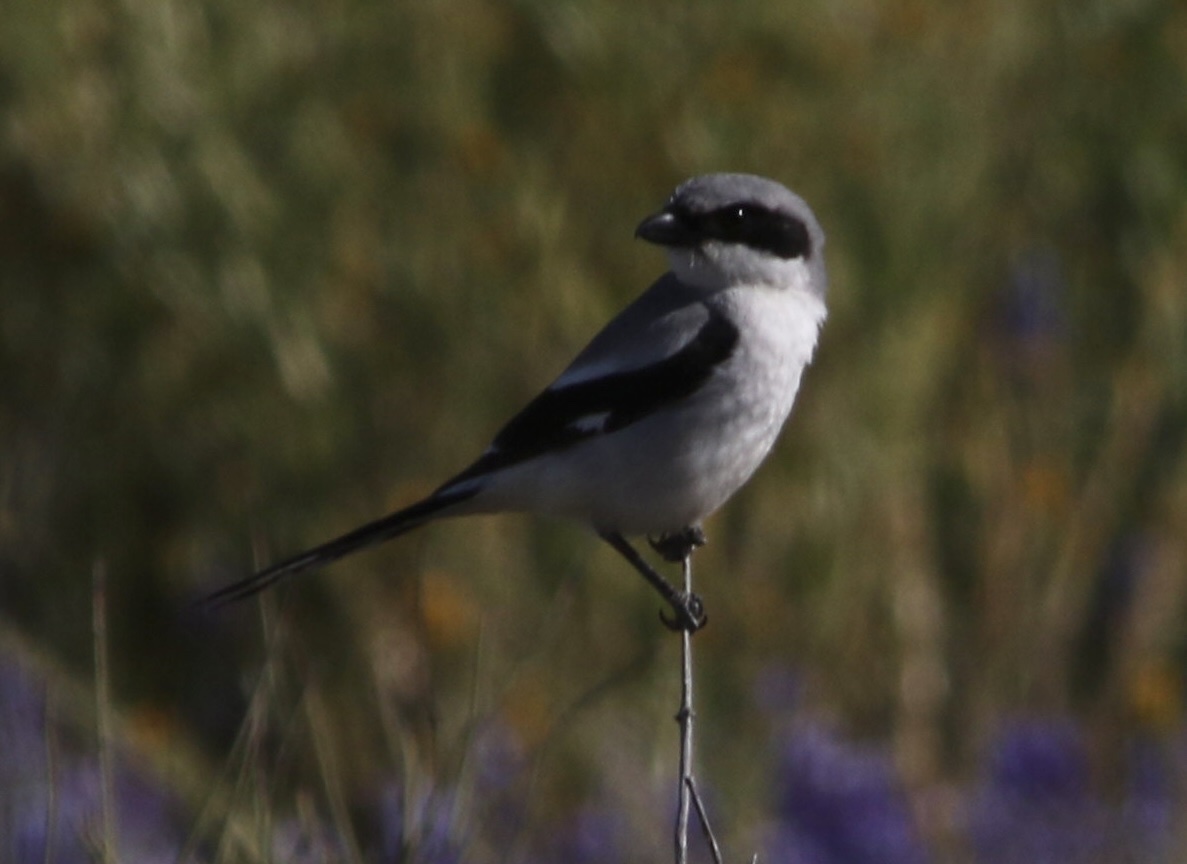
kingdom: Animalia
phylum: Chordata
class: Aves
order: Passeriformes
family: Laniidae
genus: Lanius
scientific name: Lanius ludovicianus
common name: Loggerhead shrike
